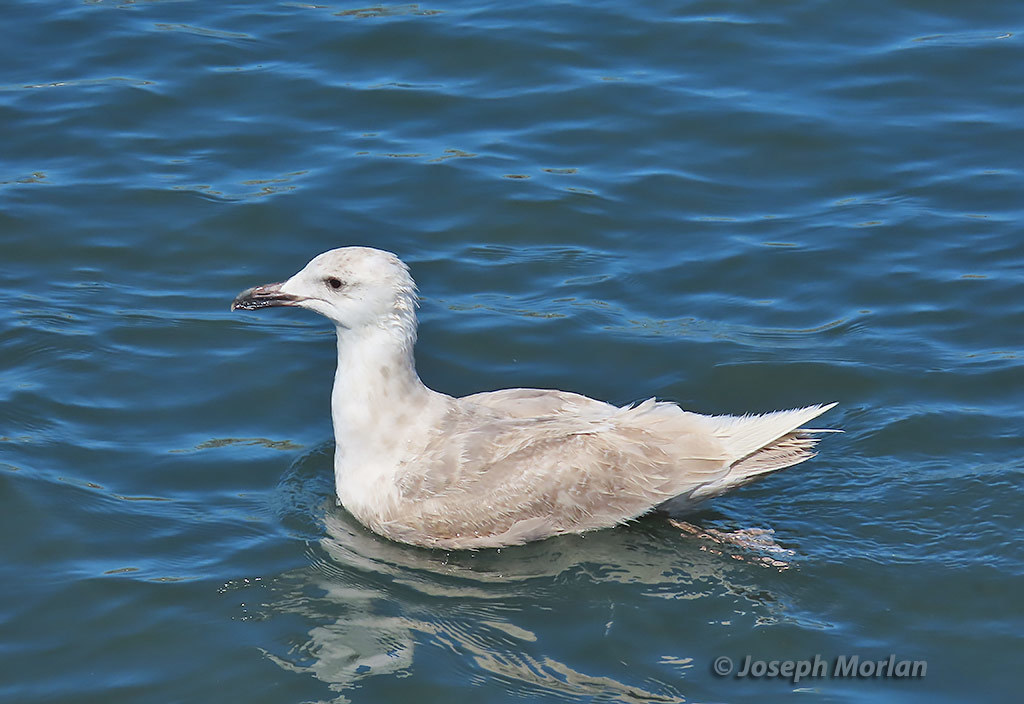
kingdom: Animalia
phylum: Chordata
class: Aves
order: Charadriiformes
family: Laridae
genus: Larus
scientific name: Larus glaucescens
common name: Glaucous-winged gull
